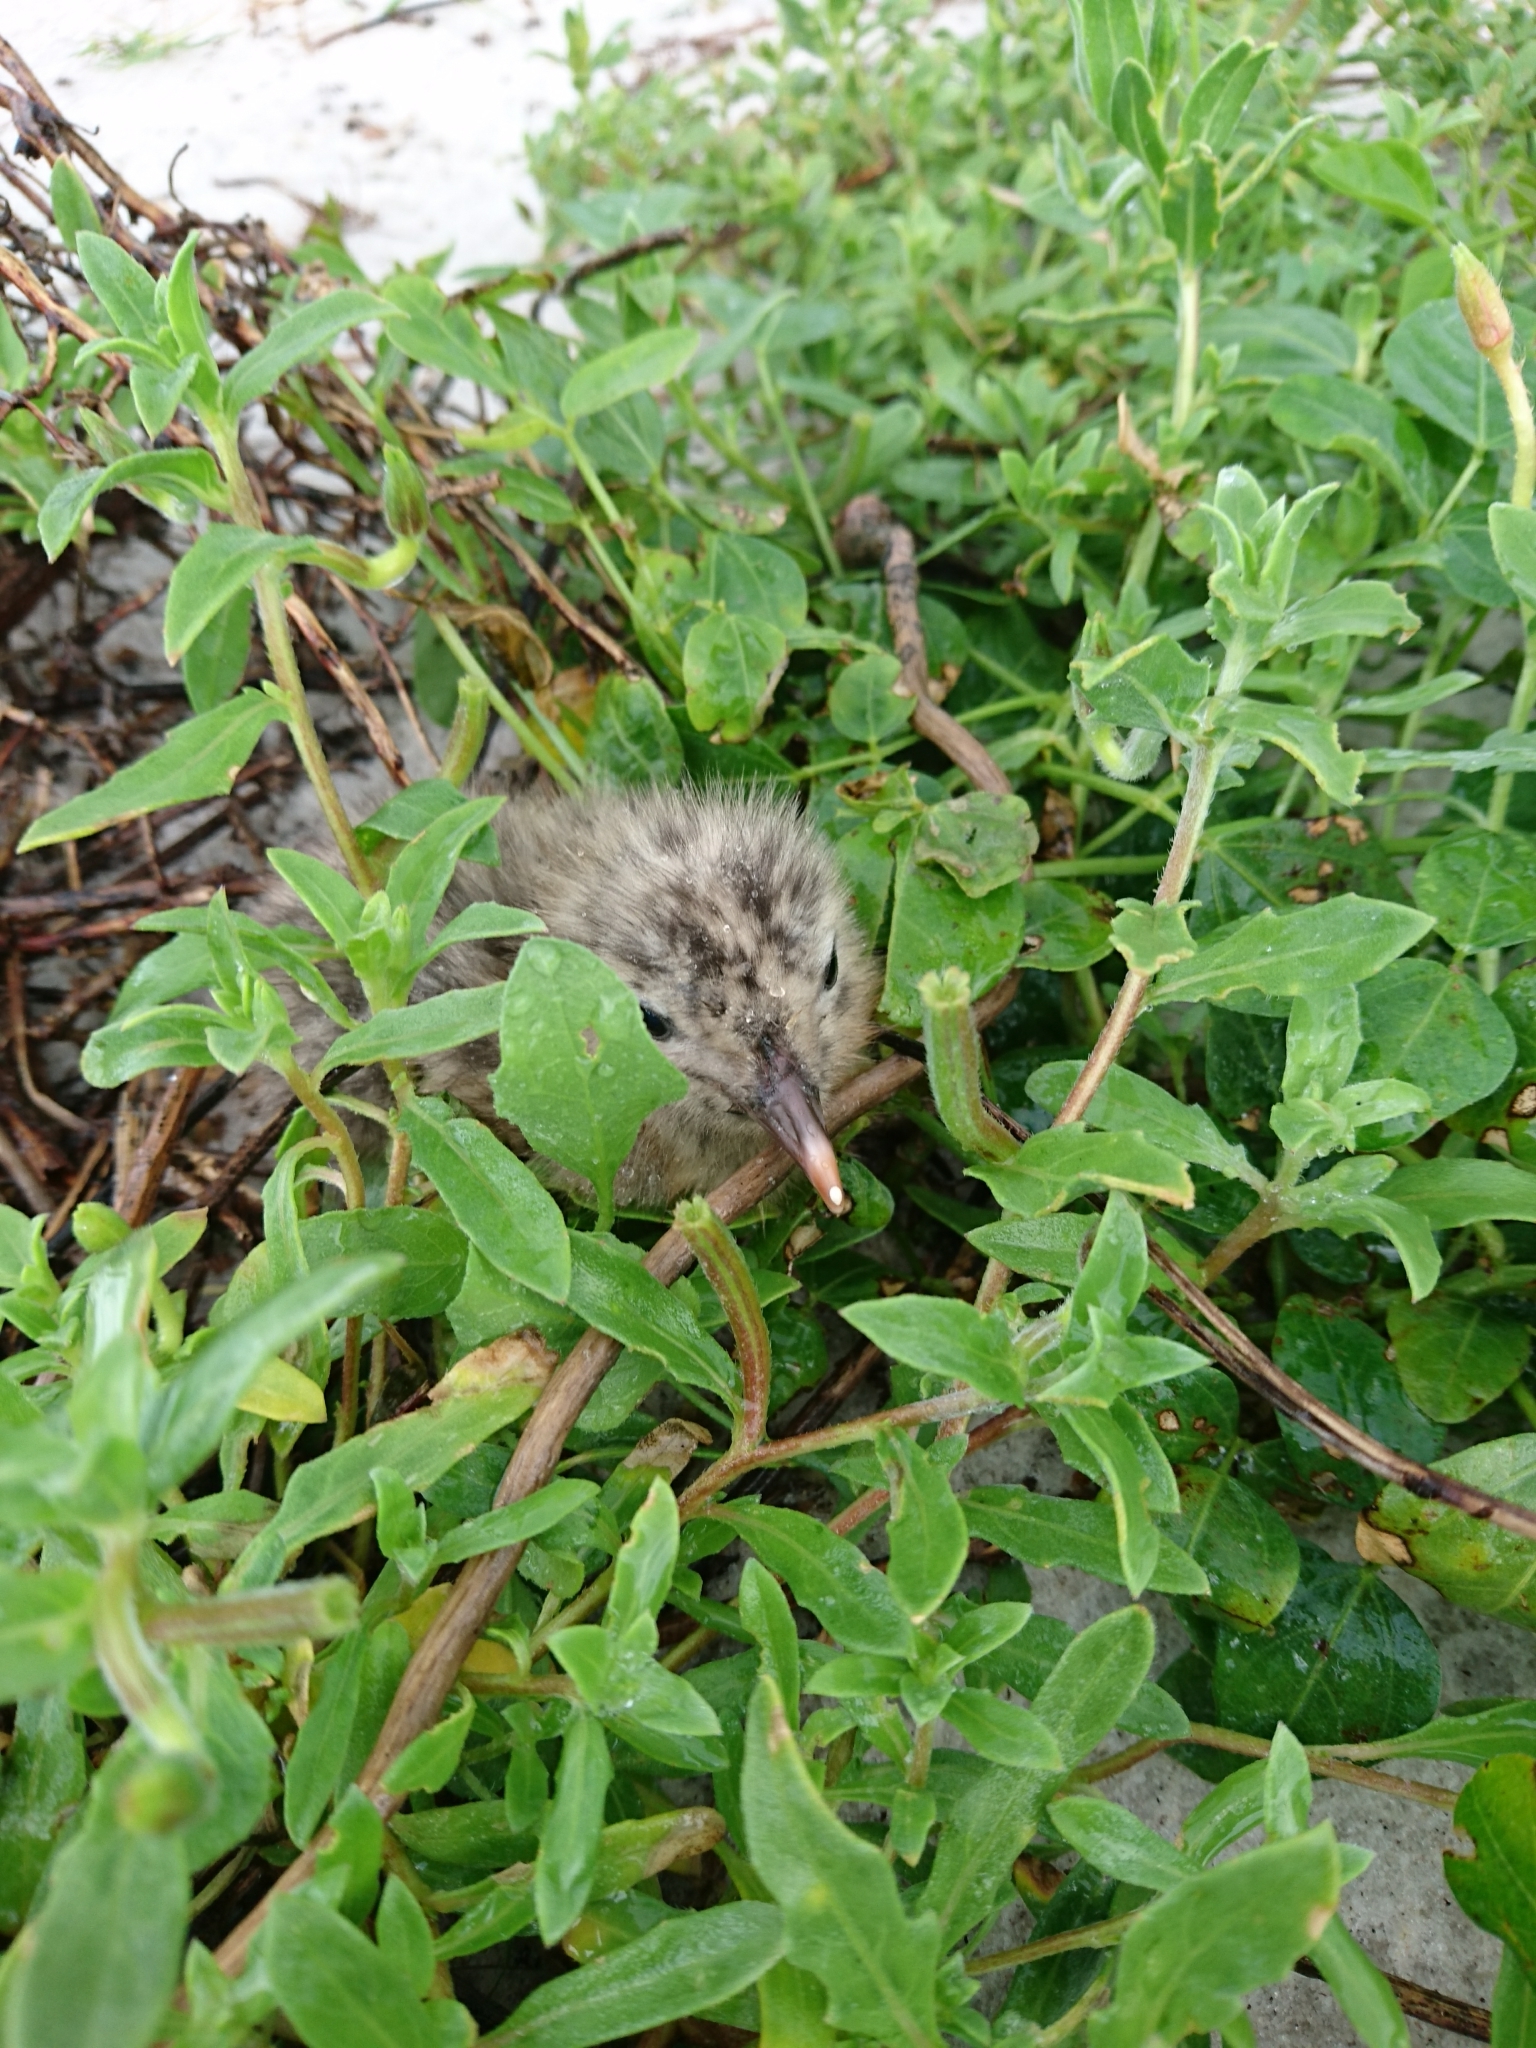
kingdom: Animalia
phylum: Chordata
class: Aves
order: Charadriiformes
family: Laridae
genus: Leucophaeus
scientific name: Leucophaeus atricilla
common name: Laughing gull
